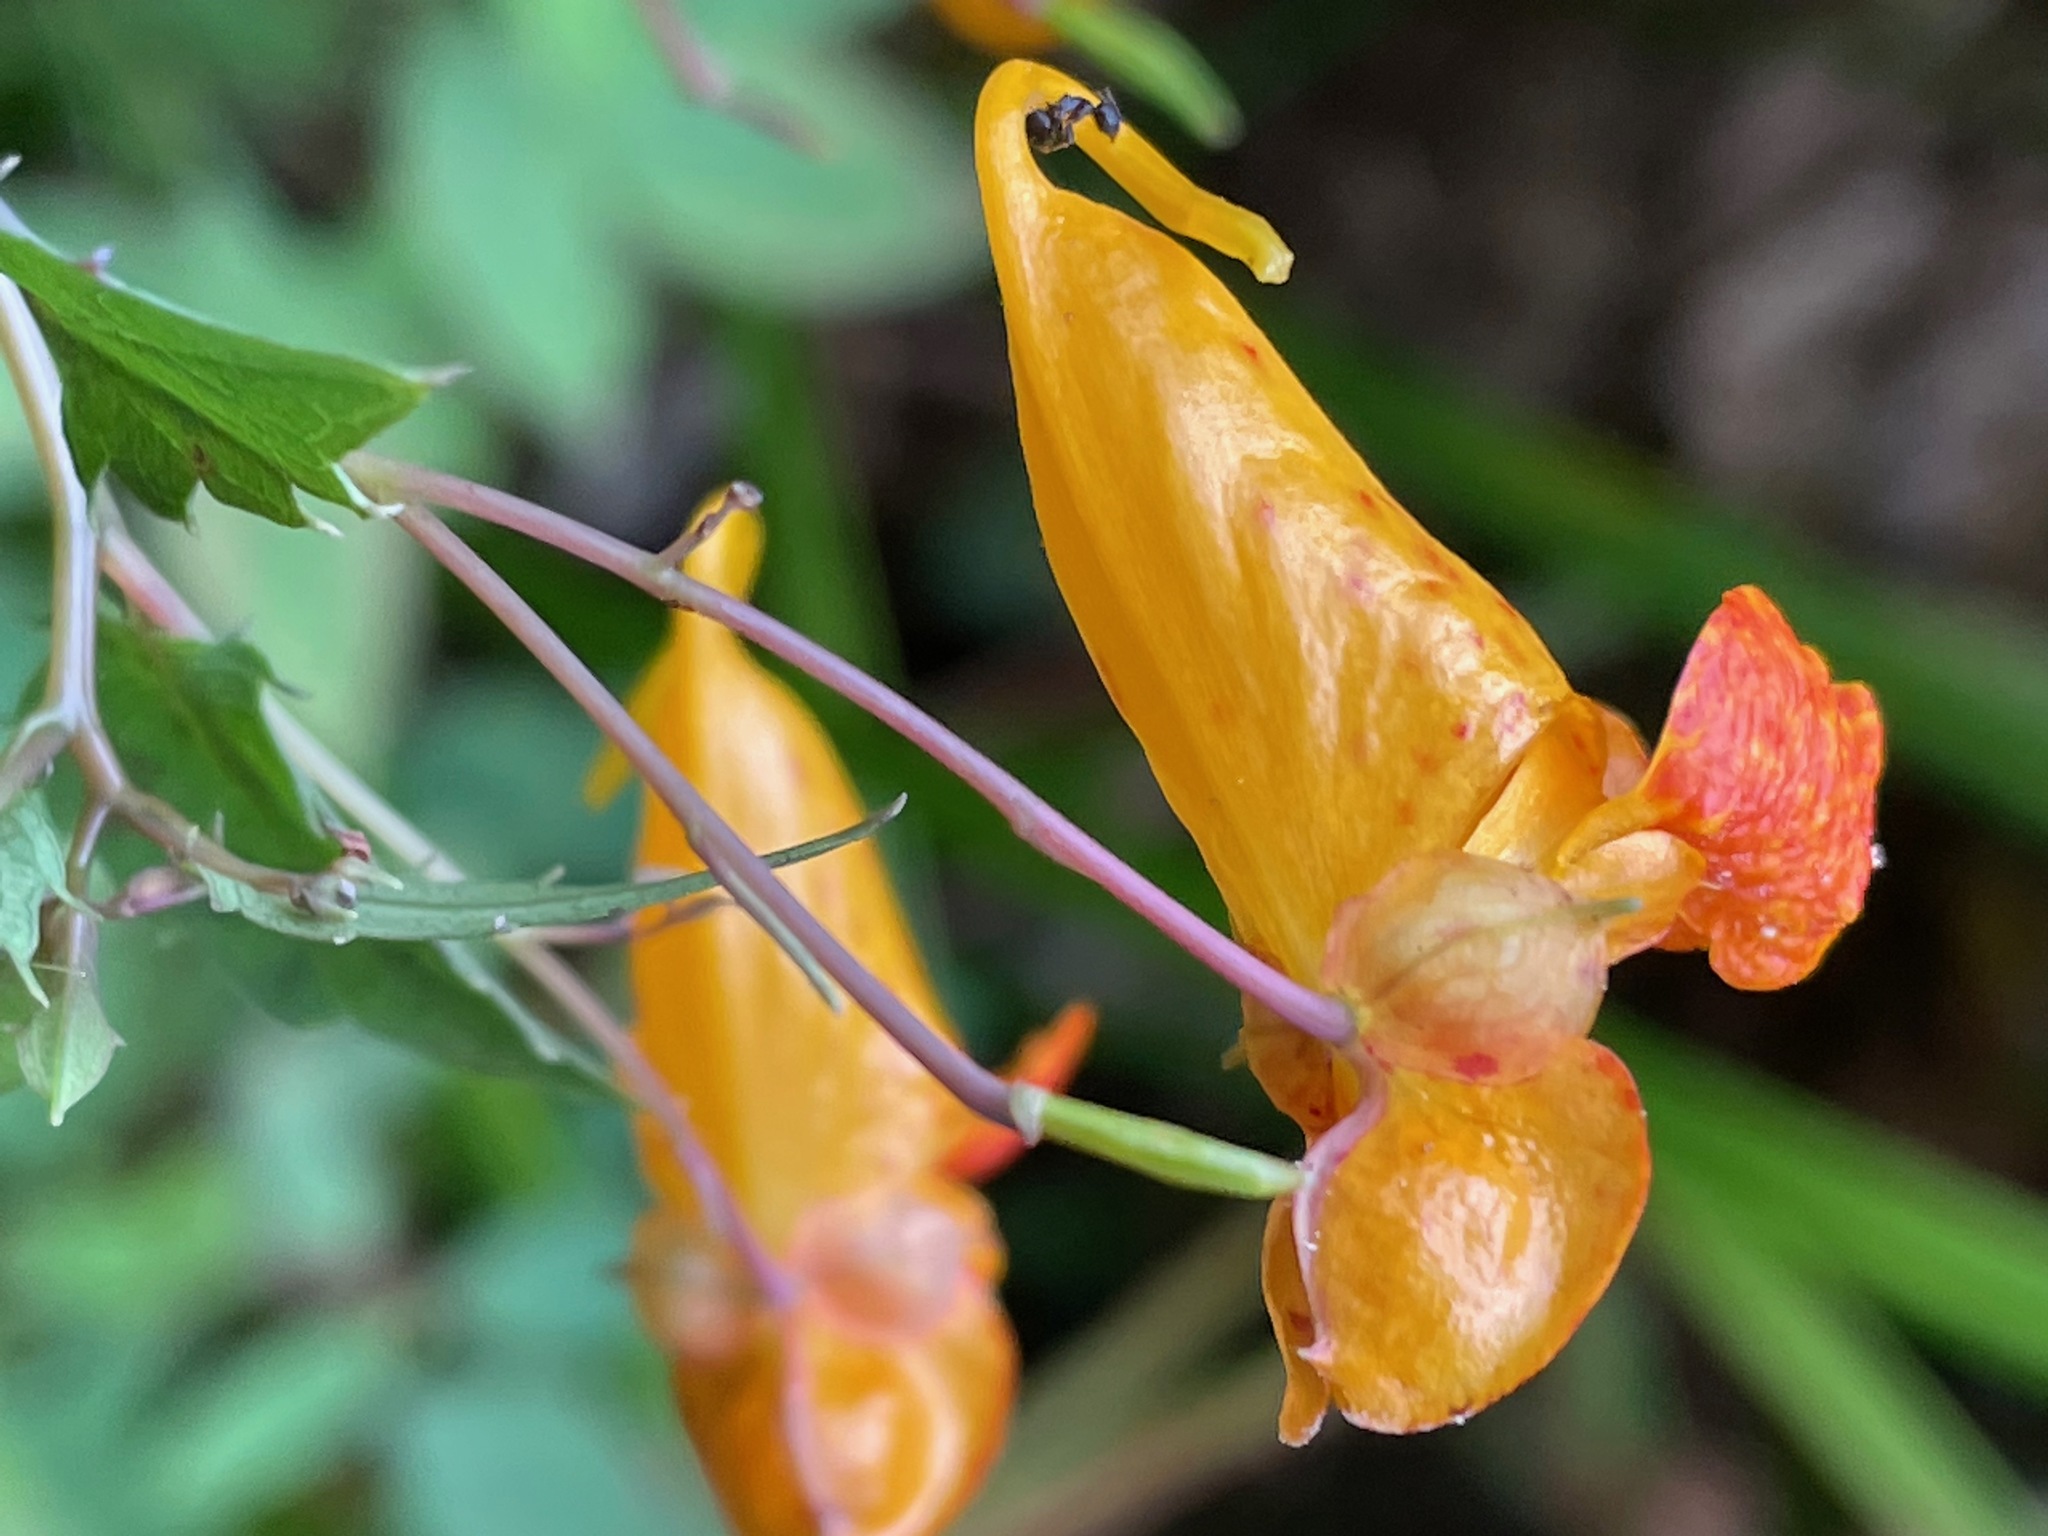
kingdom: Plantae
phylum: Tracheophyta
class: Magnoliopsida
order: Ericales
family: Balsaminaceae
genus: Impatiens
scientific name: Impatiens capensis
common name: Orange balsam
